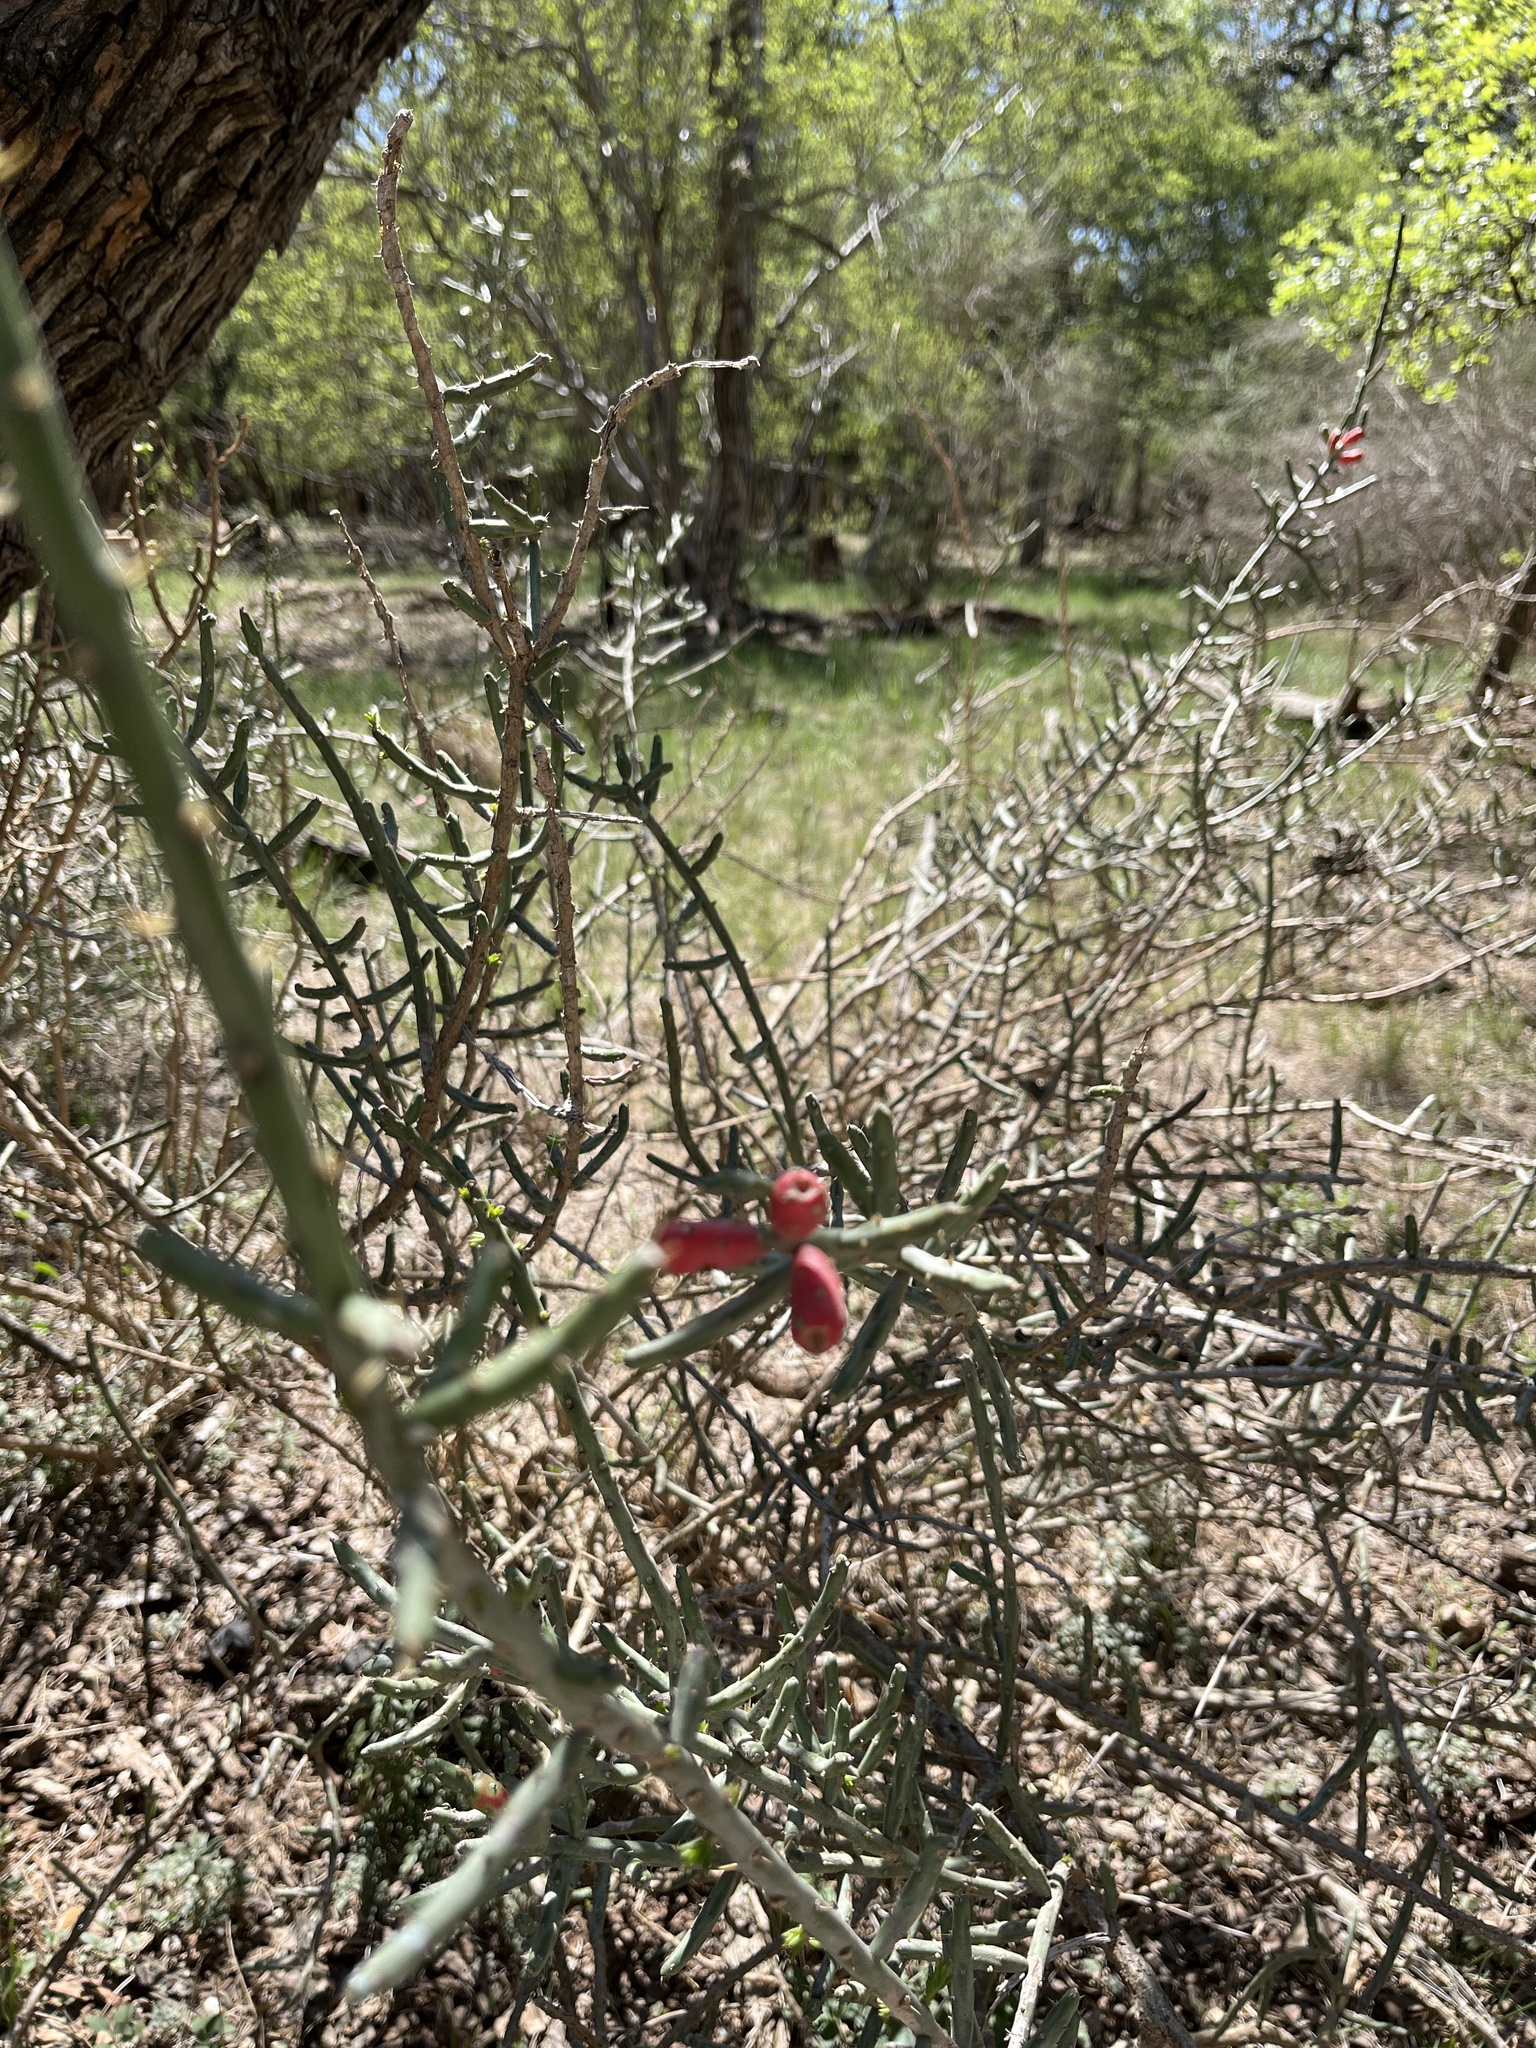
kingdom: Plantae
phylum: Tracheophyta
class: Magnoliopsida
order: Caryophyllales
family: Cactaceae
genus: Cylindropuntia
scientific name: Cylindropuntia leptocaulis
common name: Christmas cactus
